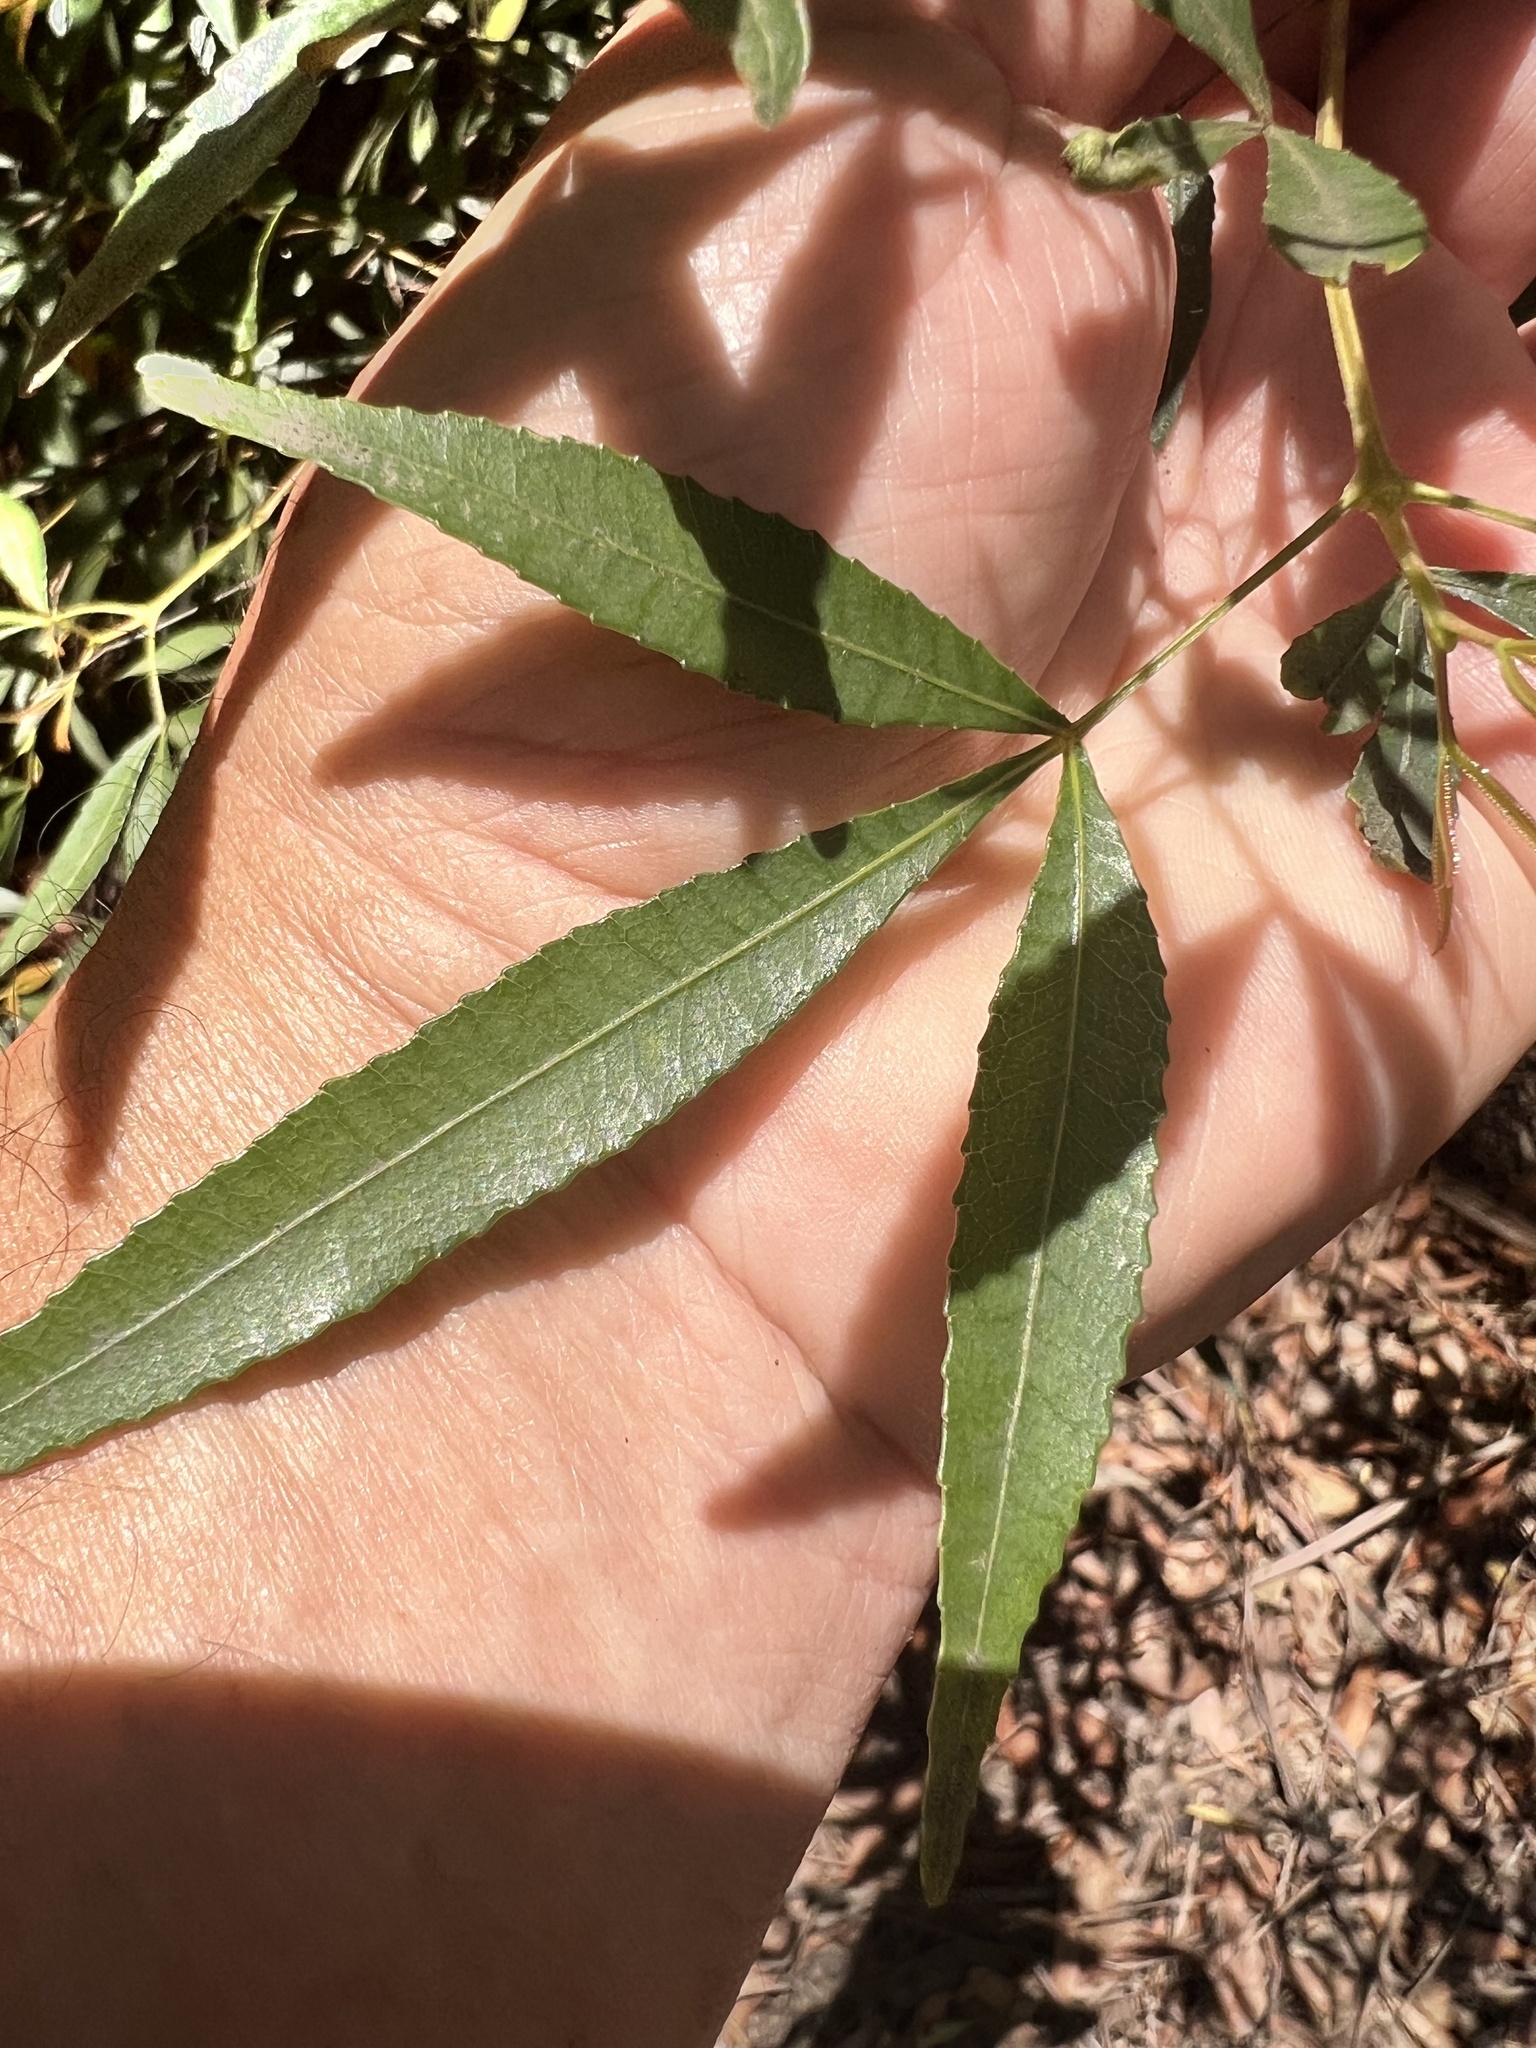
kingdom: Plantae
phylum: Tracheophyta
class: Magnoliopsida
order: Oxalidales
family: Cunoniaceae
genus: Ceratopetalum
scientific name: Ceratopetalum gummiferum
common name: Christmasbush
